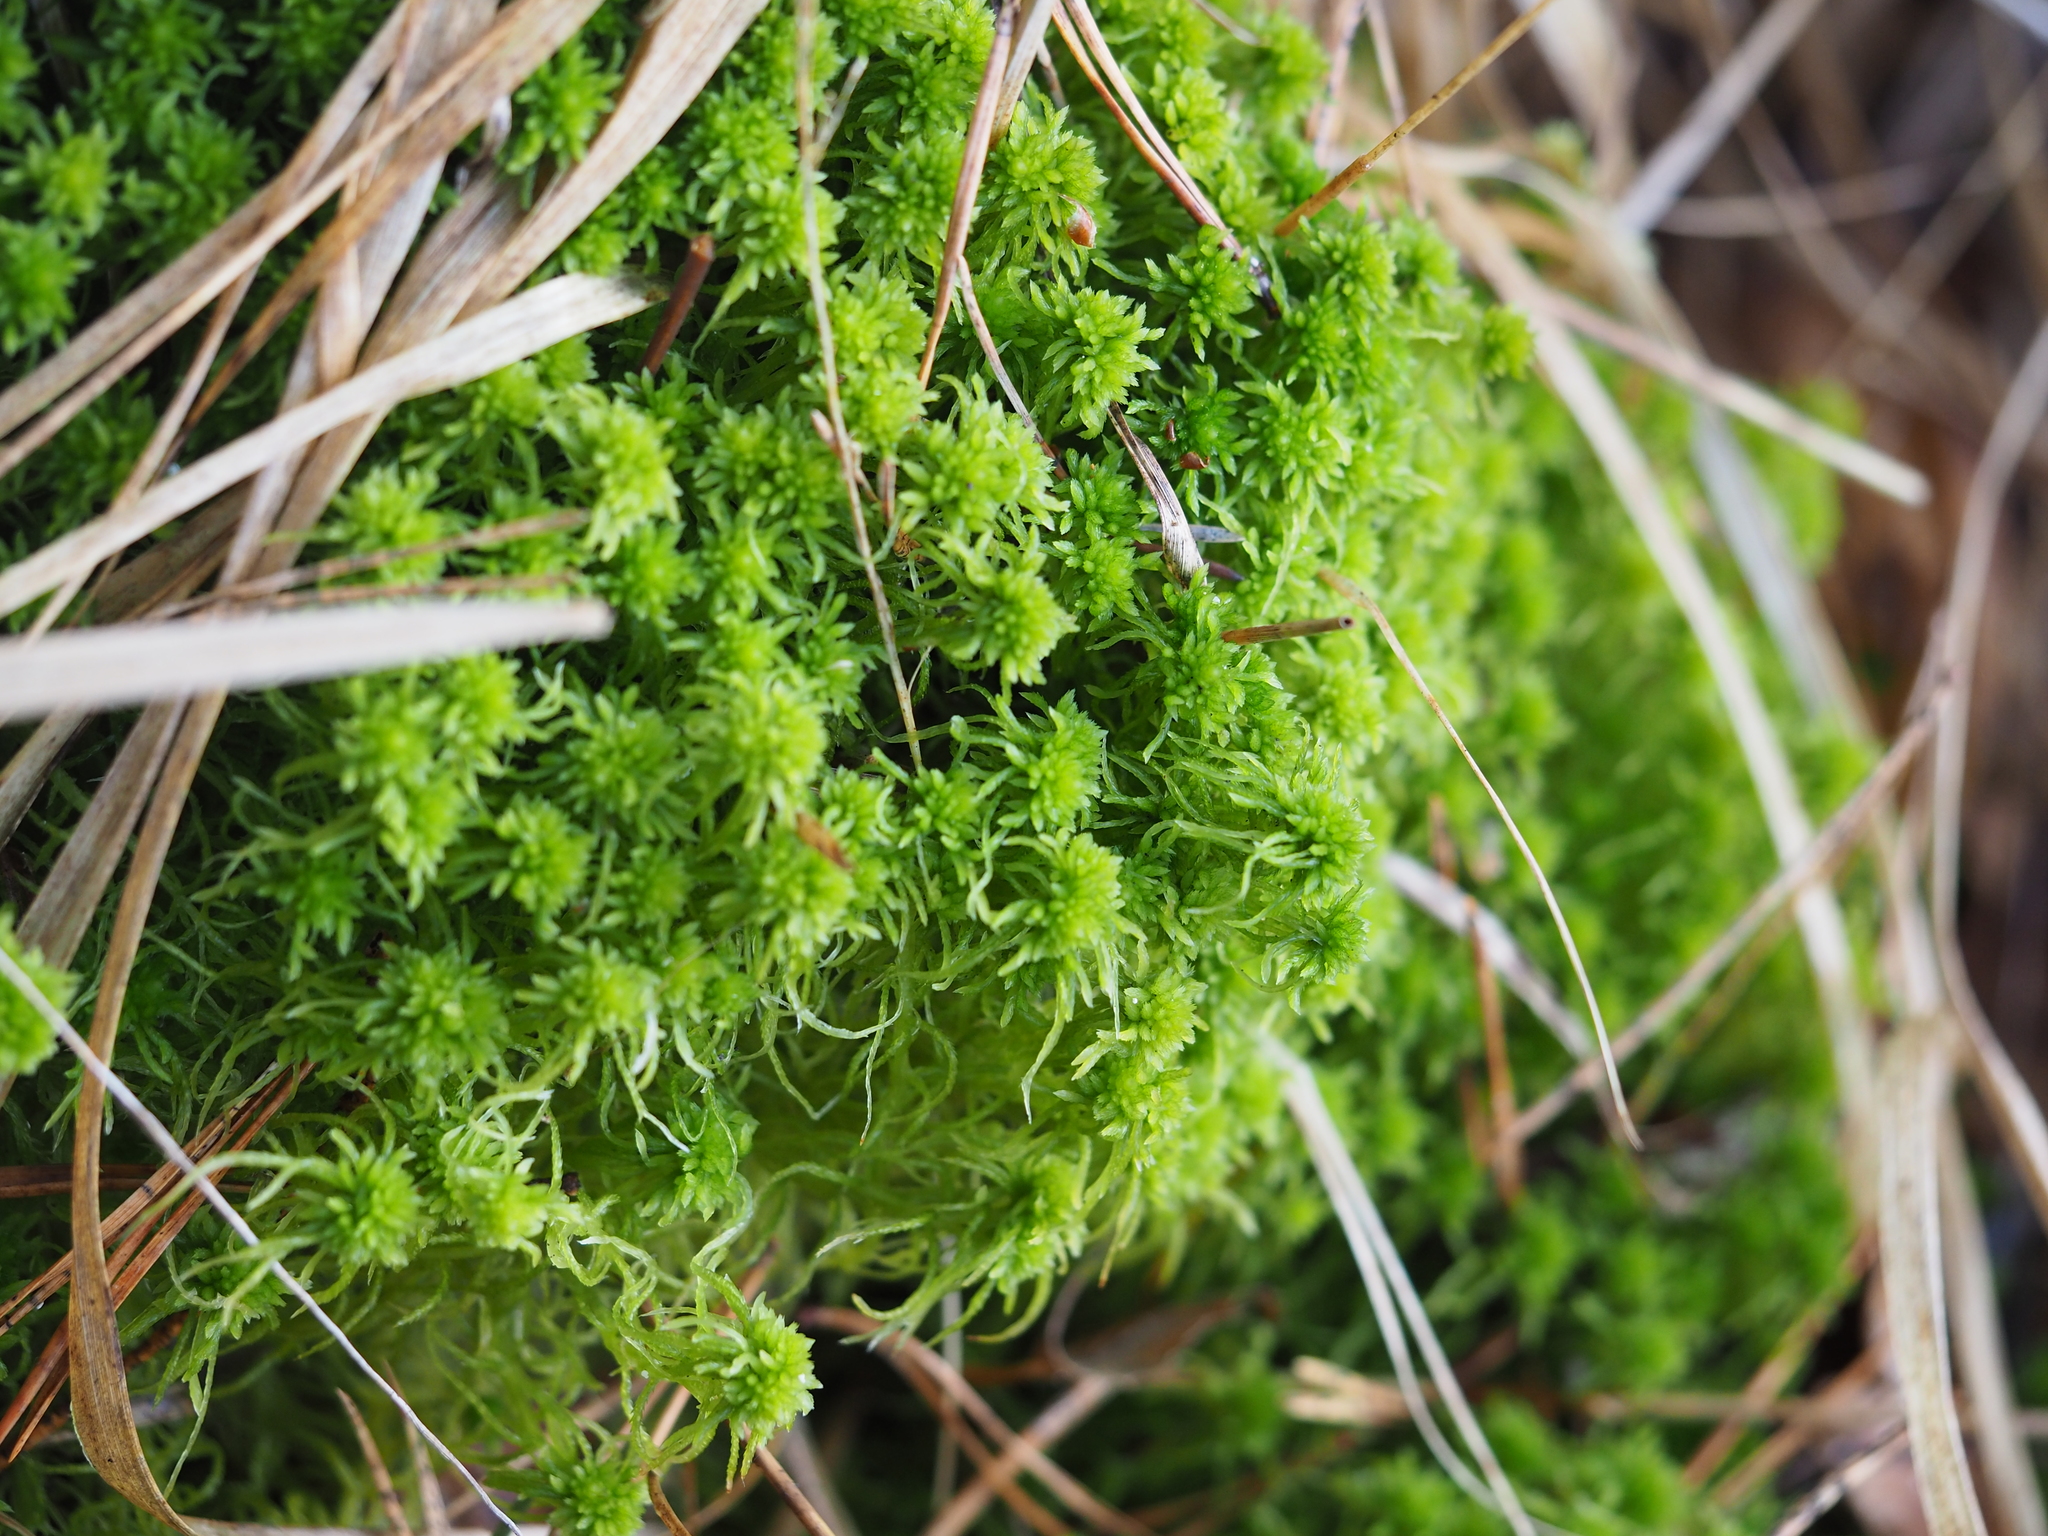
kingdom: Plantae
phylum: Bryophyta
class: Sphagnopsida
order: Sphagnales
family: Sphagnaceae
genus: Sphagnum
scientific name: Sphagnum fimbriatum
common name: Fringed peat moss
